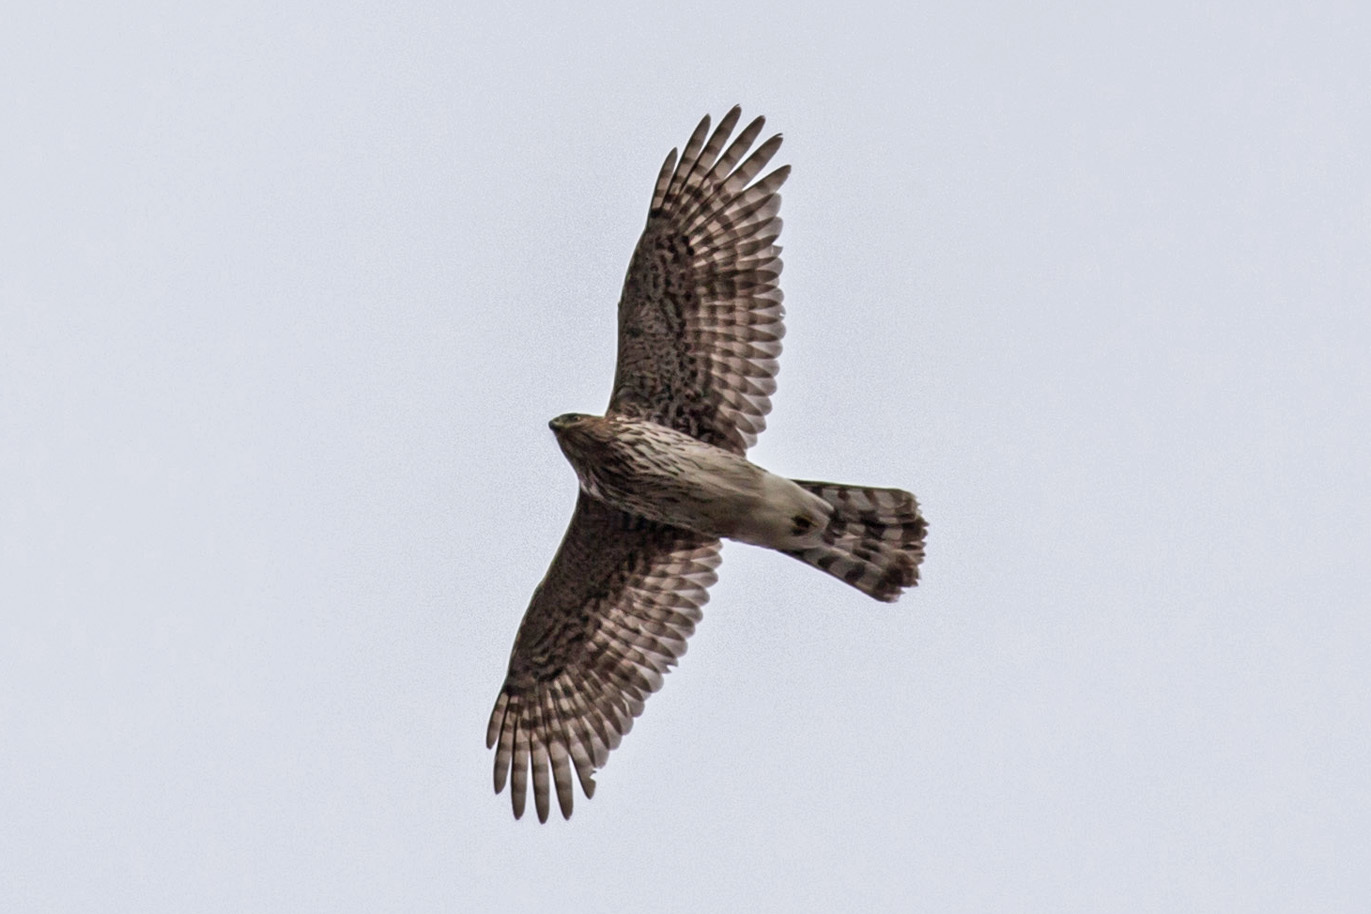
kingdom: Animalia
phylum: Chordata
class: Aves
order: Accipitriformes
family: Accipitridae
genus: Accipiter
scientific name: Accipiter cooperii
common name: Cooper's hawk
